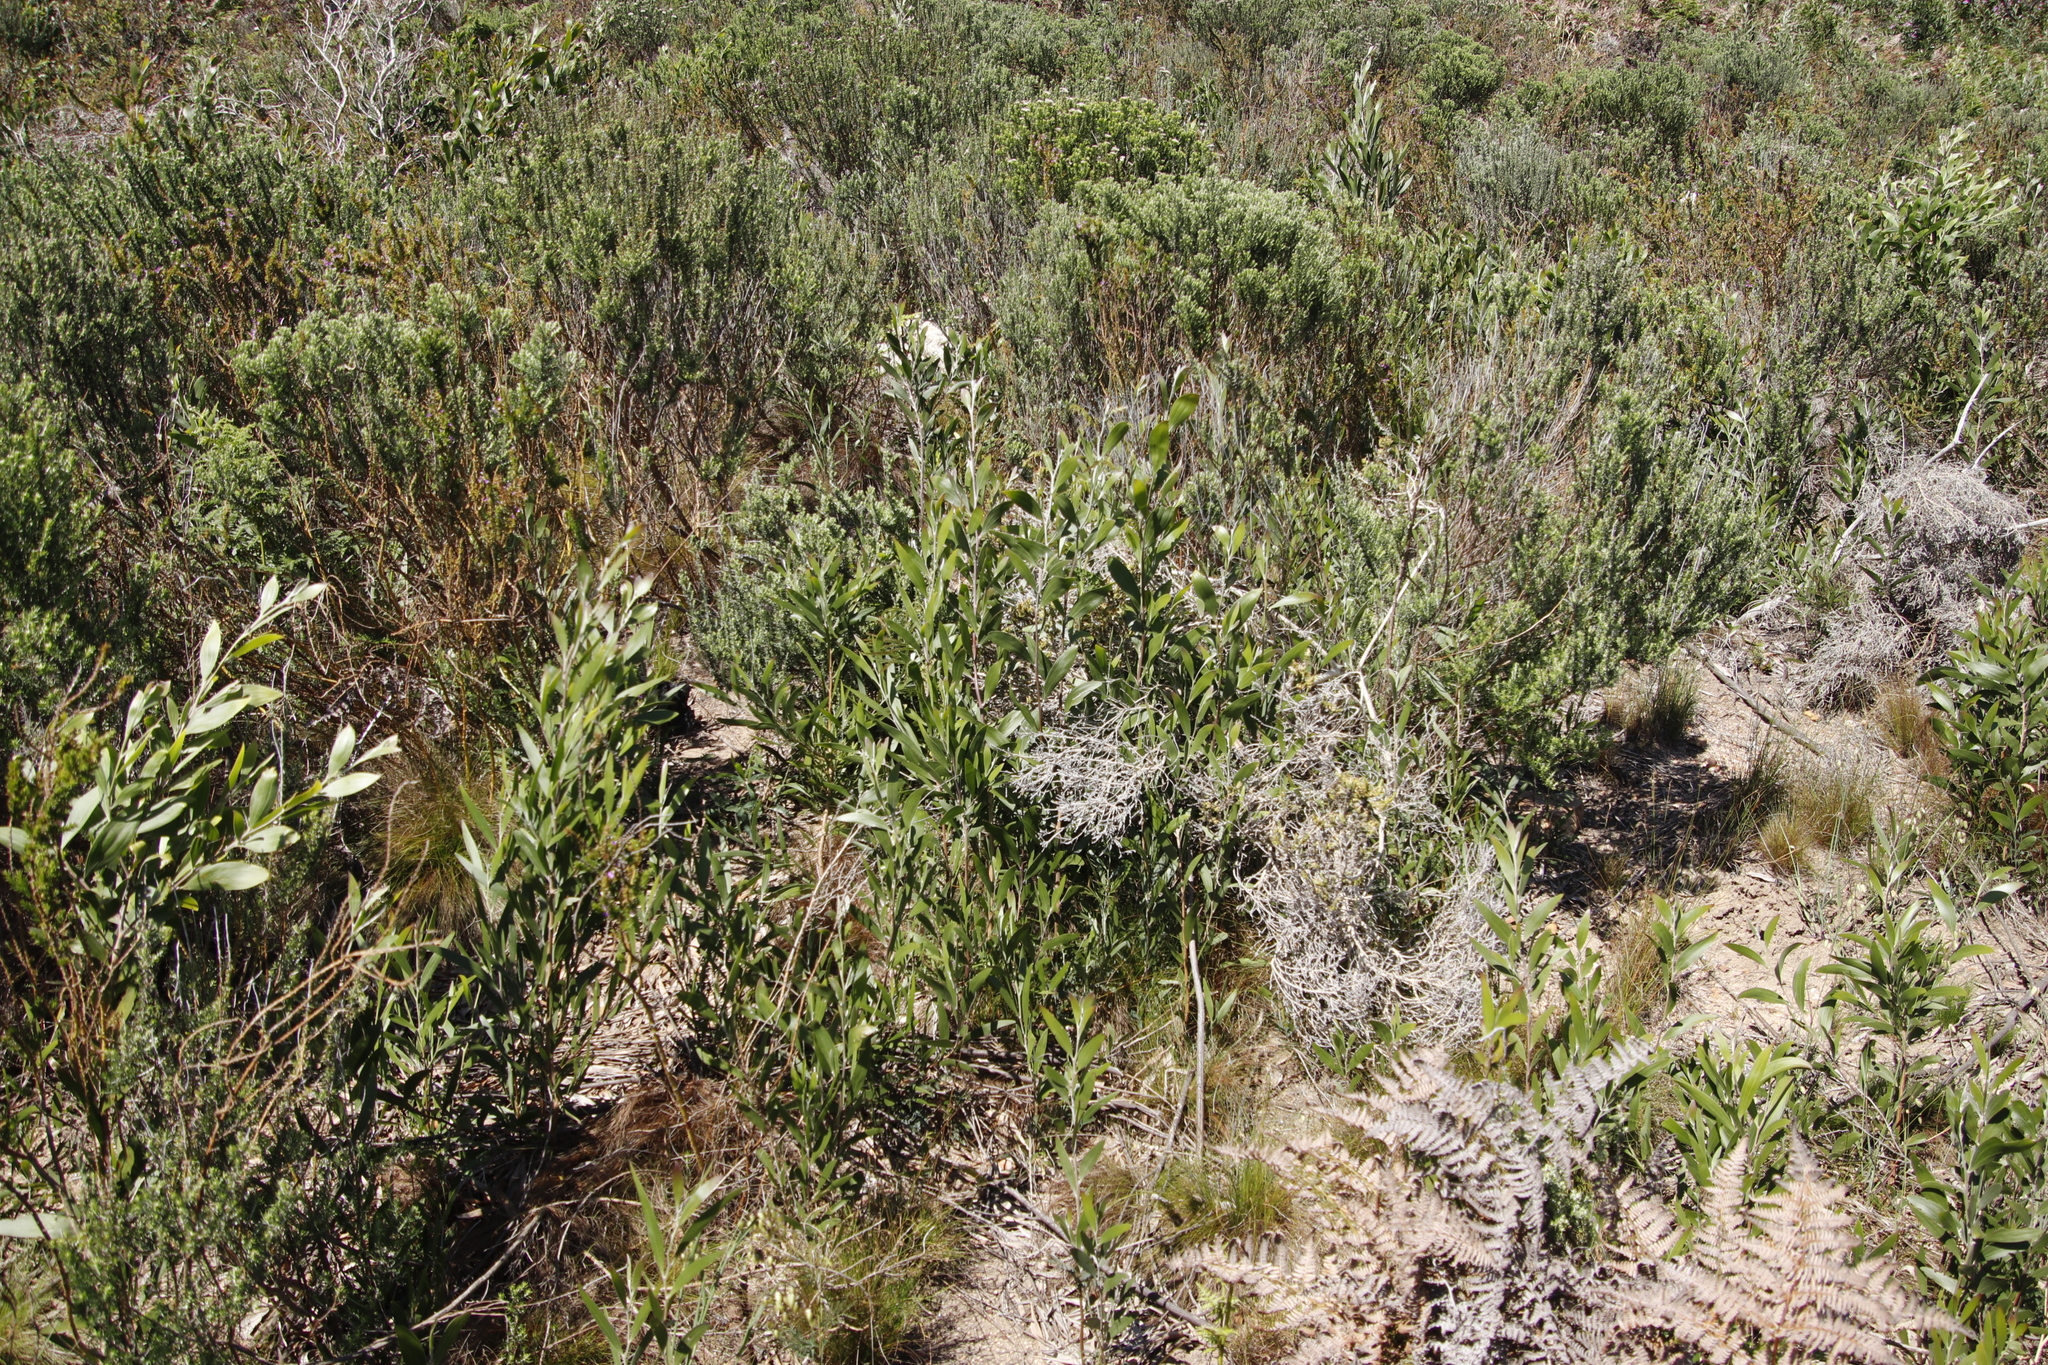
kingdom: Plantae
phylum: Tracheophyta
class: Magnoliopsida
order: Fabales
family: Fabaceae
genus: Acacia
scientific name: Acacia melanoxylon
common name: Blackwood
